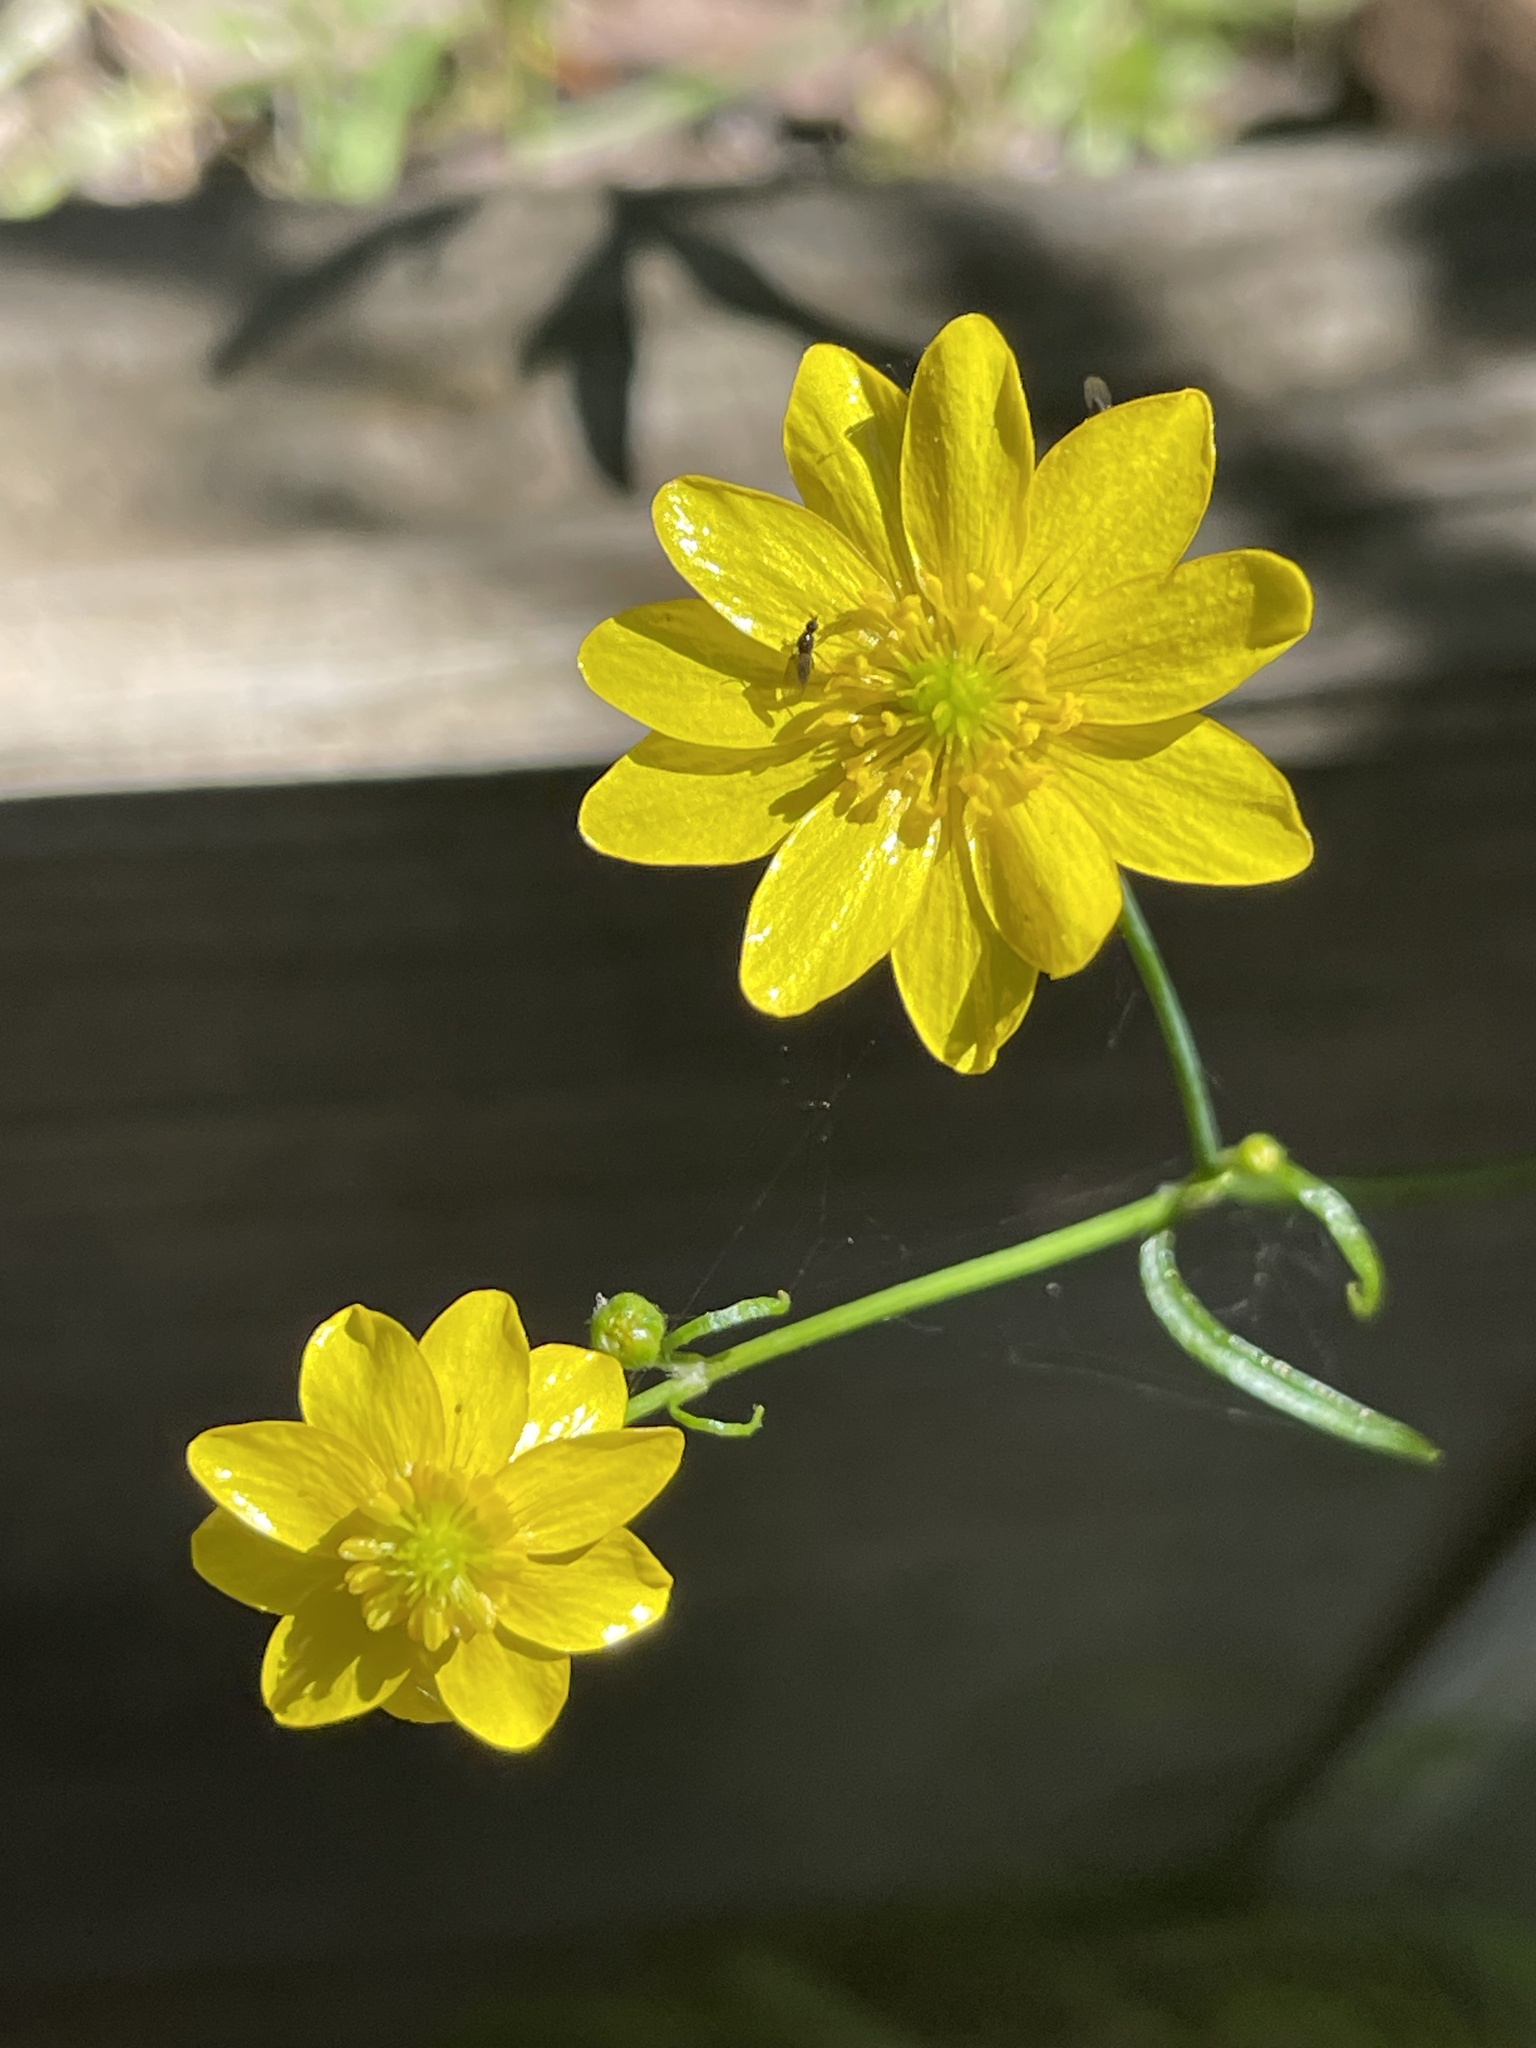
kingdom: Plantae
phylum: Tracheophyta
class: Magnoliopsida
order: Ranunculales
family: Ranunculaceae
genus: Ranunculus
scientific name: Ranunculus californicus
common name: California buttercup
